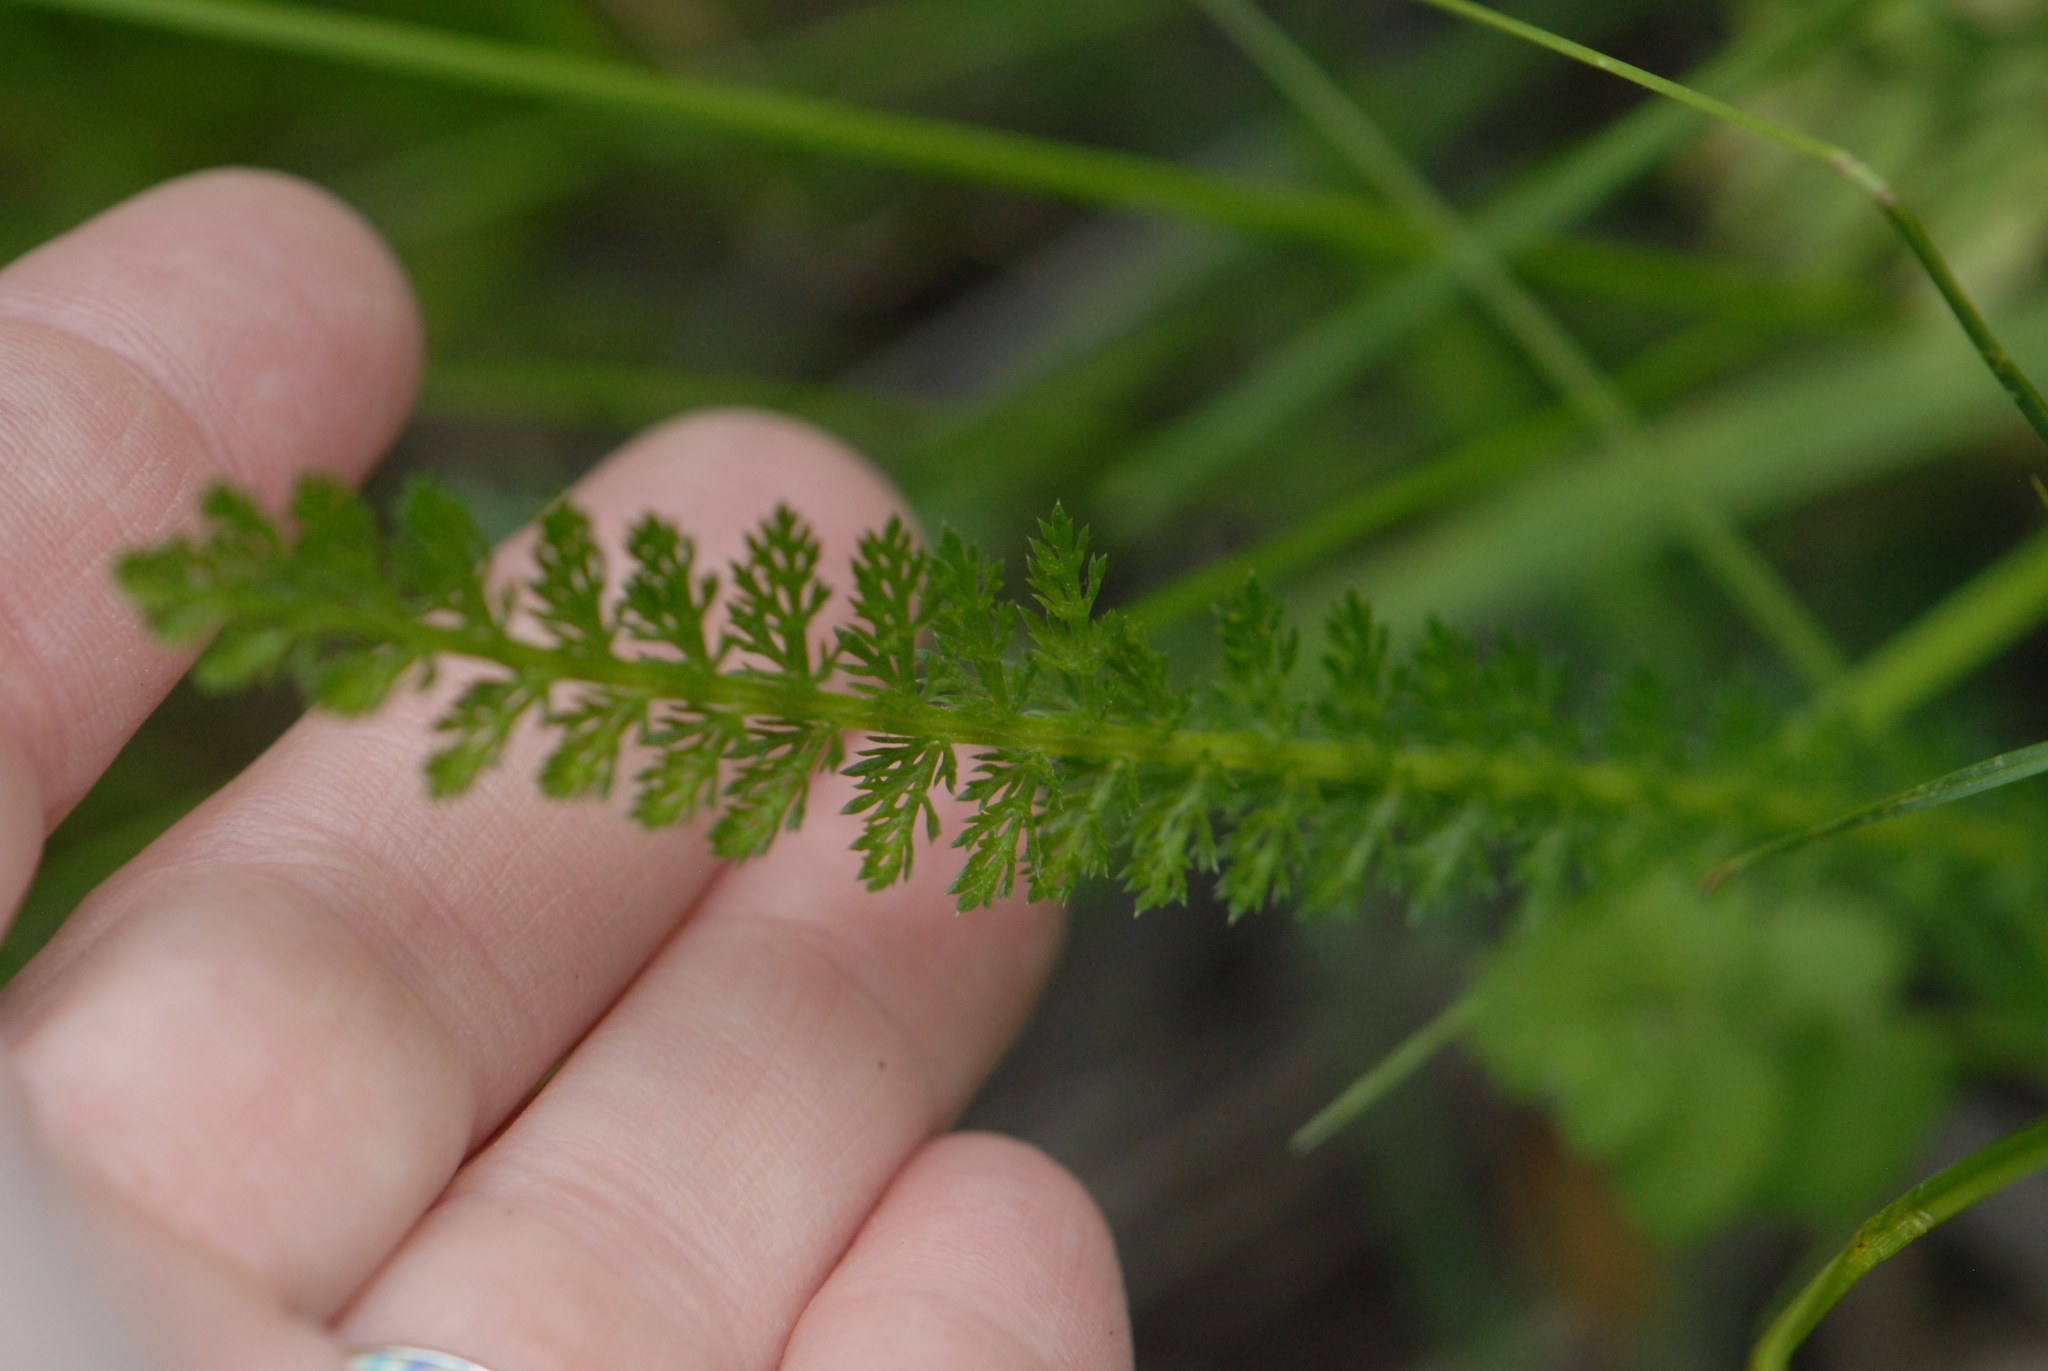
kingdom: Plantae
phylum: Tracheophyta
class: Magnoliopsida
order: Asterales
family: Asteraceae
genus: Achillea
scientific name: Achillea millefolium
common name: Yarrow
